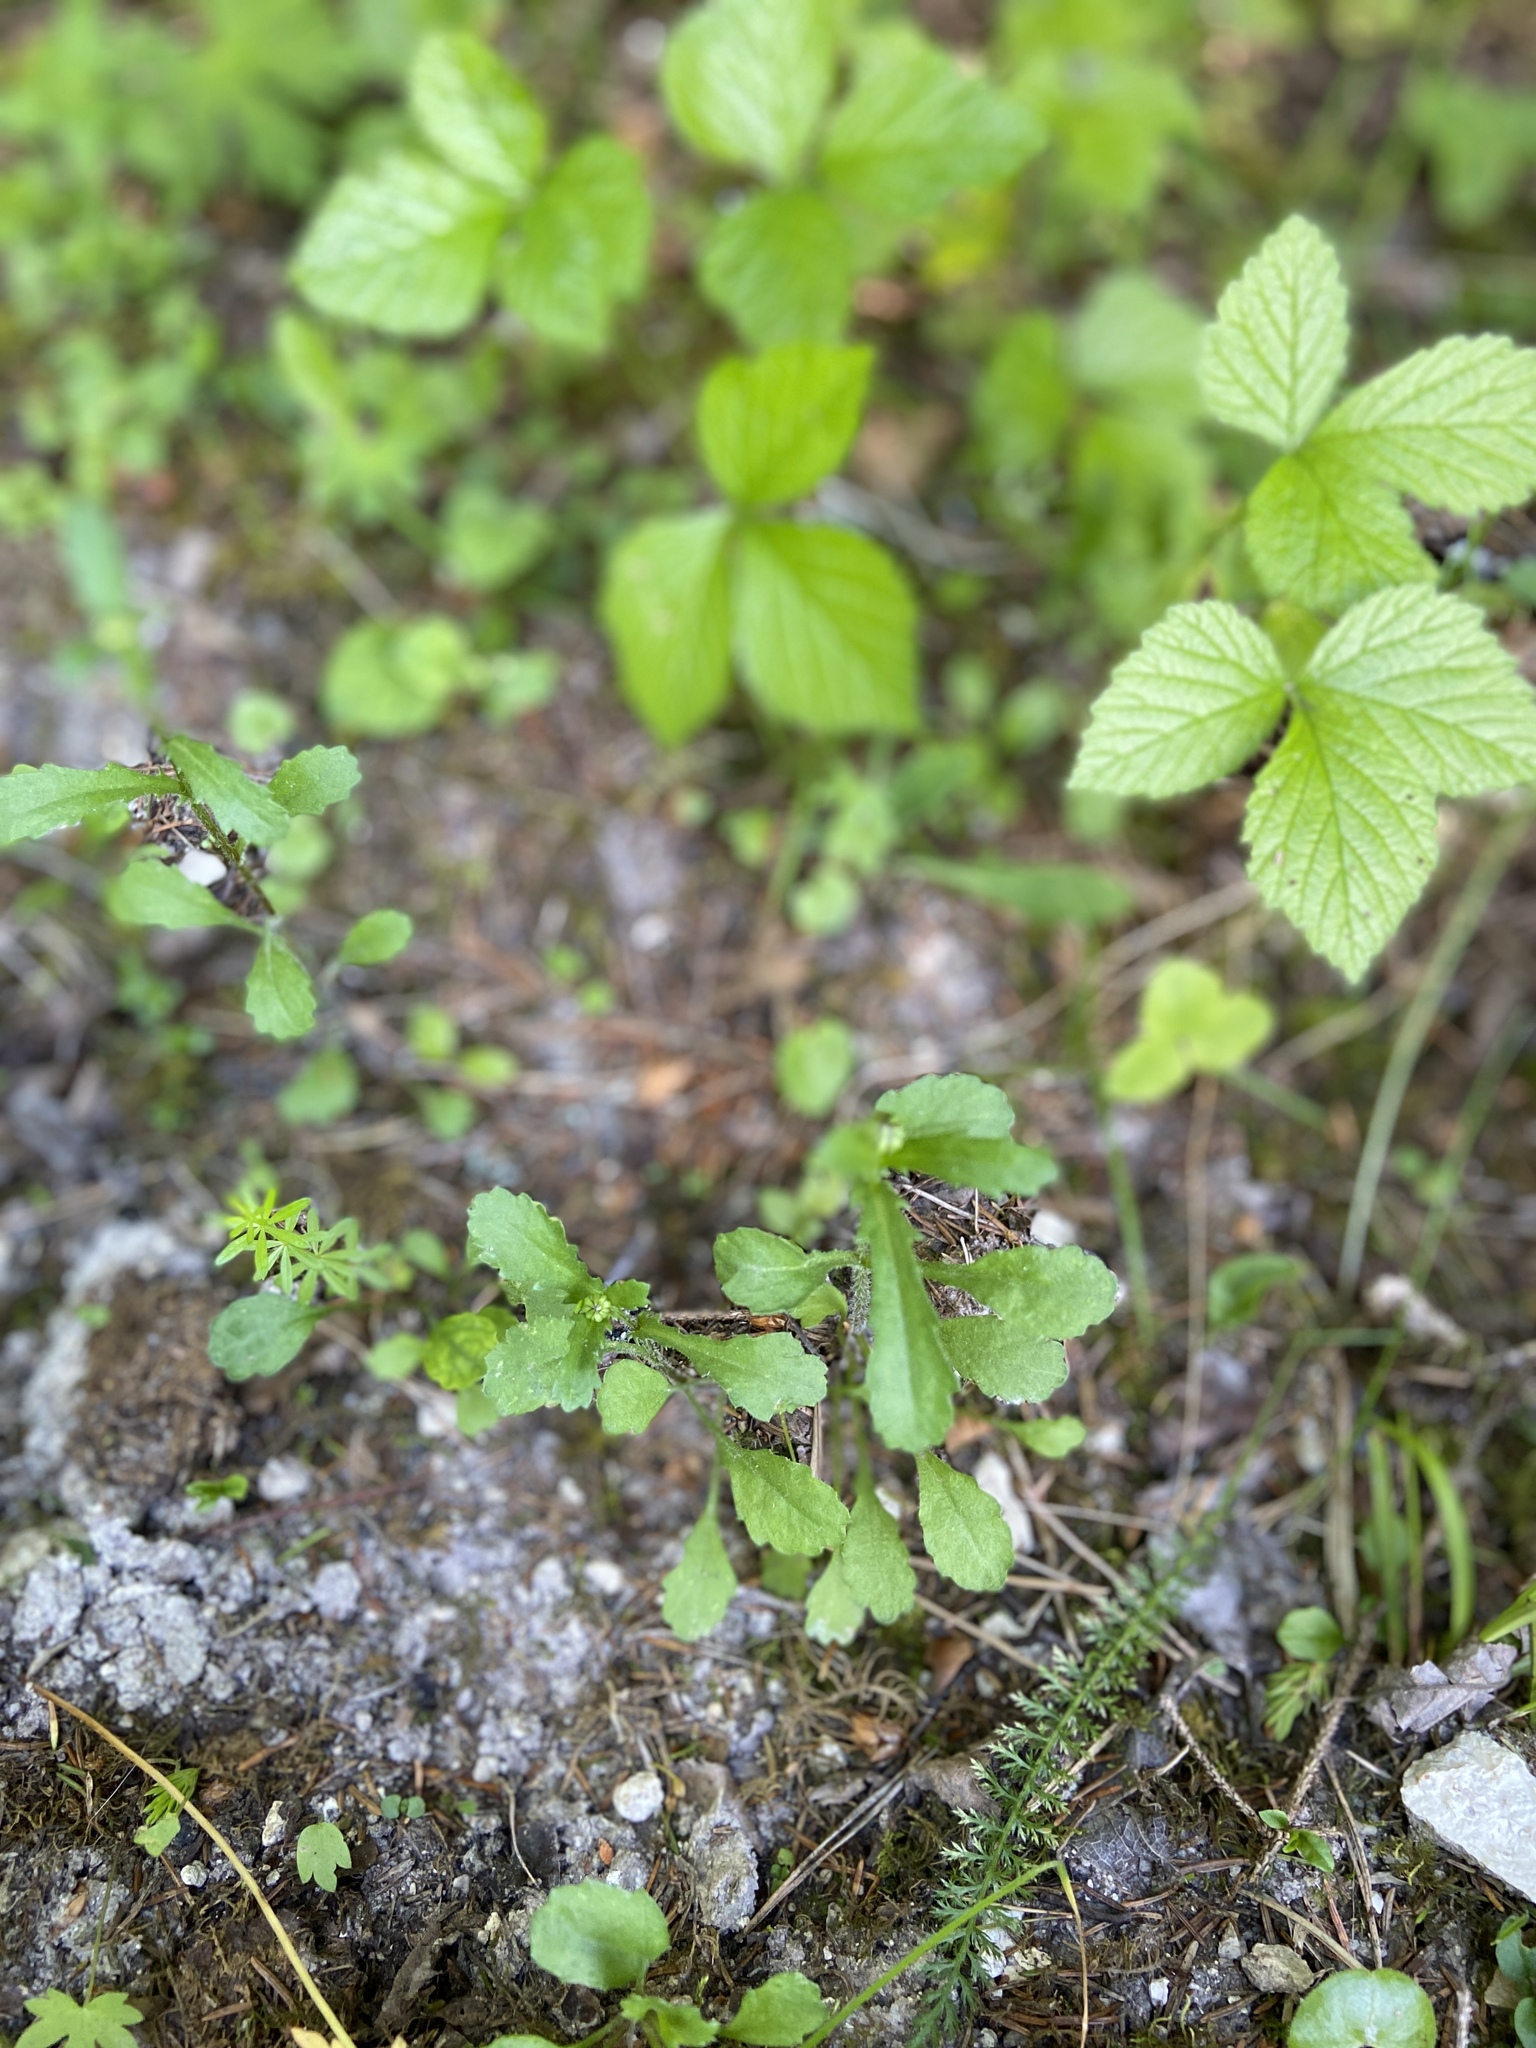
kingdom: Plantae
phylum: Tracheophyta
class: Magnoliopsida
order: Asterales
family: Asteraceae
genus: Leucanthemum
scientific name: Leucanthemum vulgare
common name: Oxeye daisy
